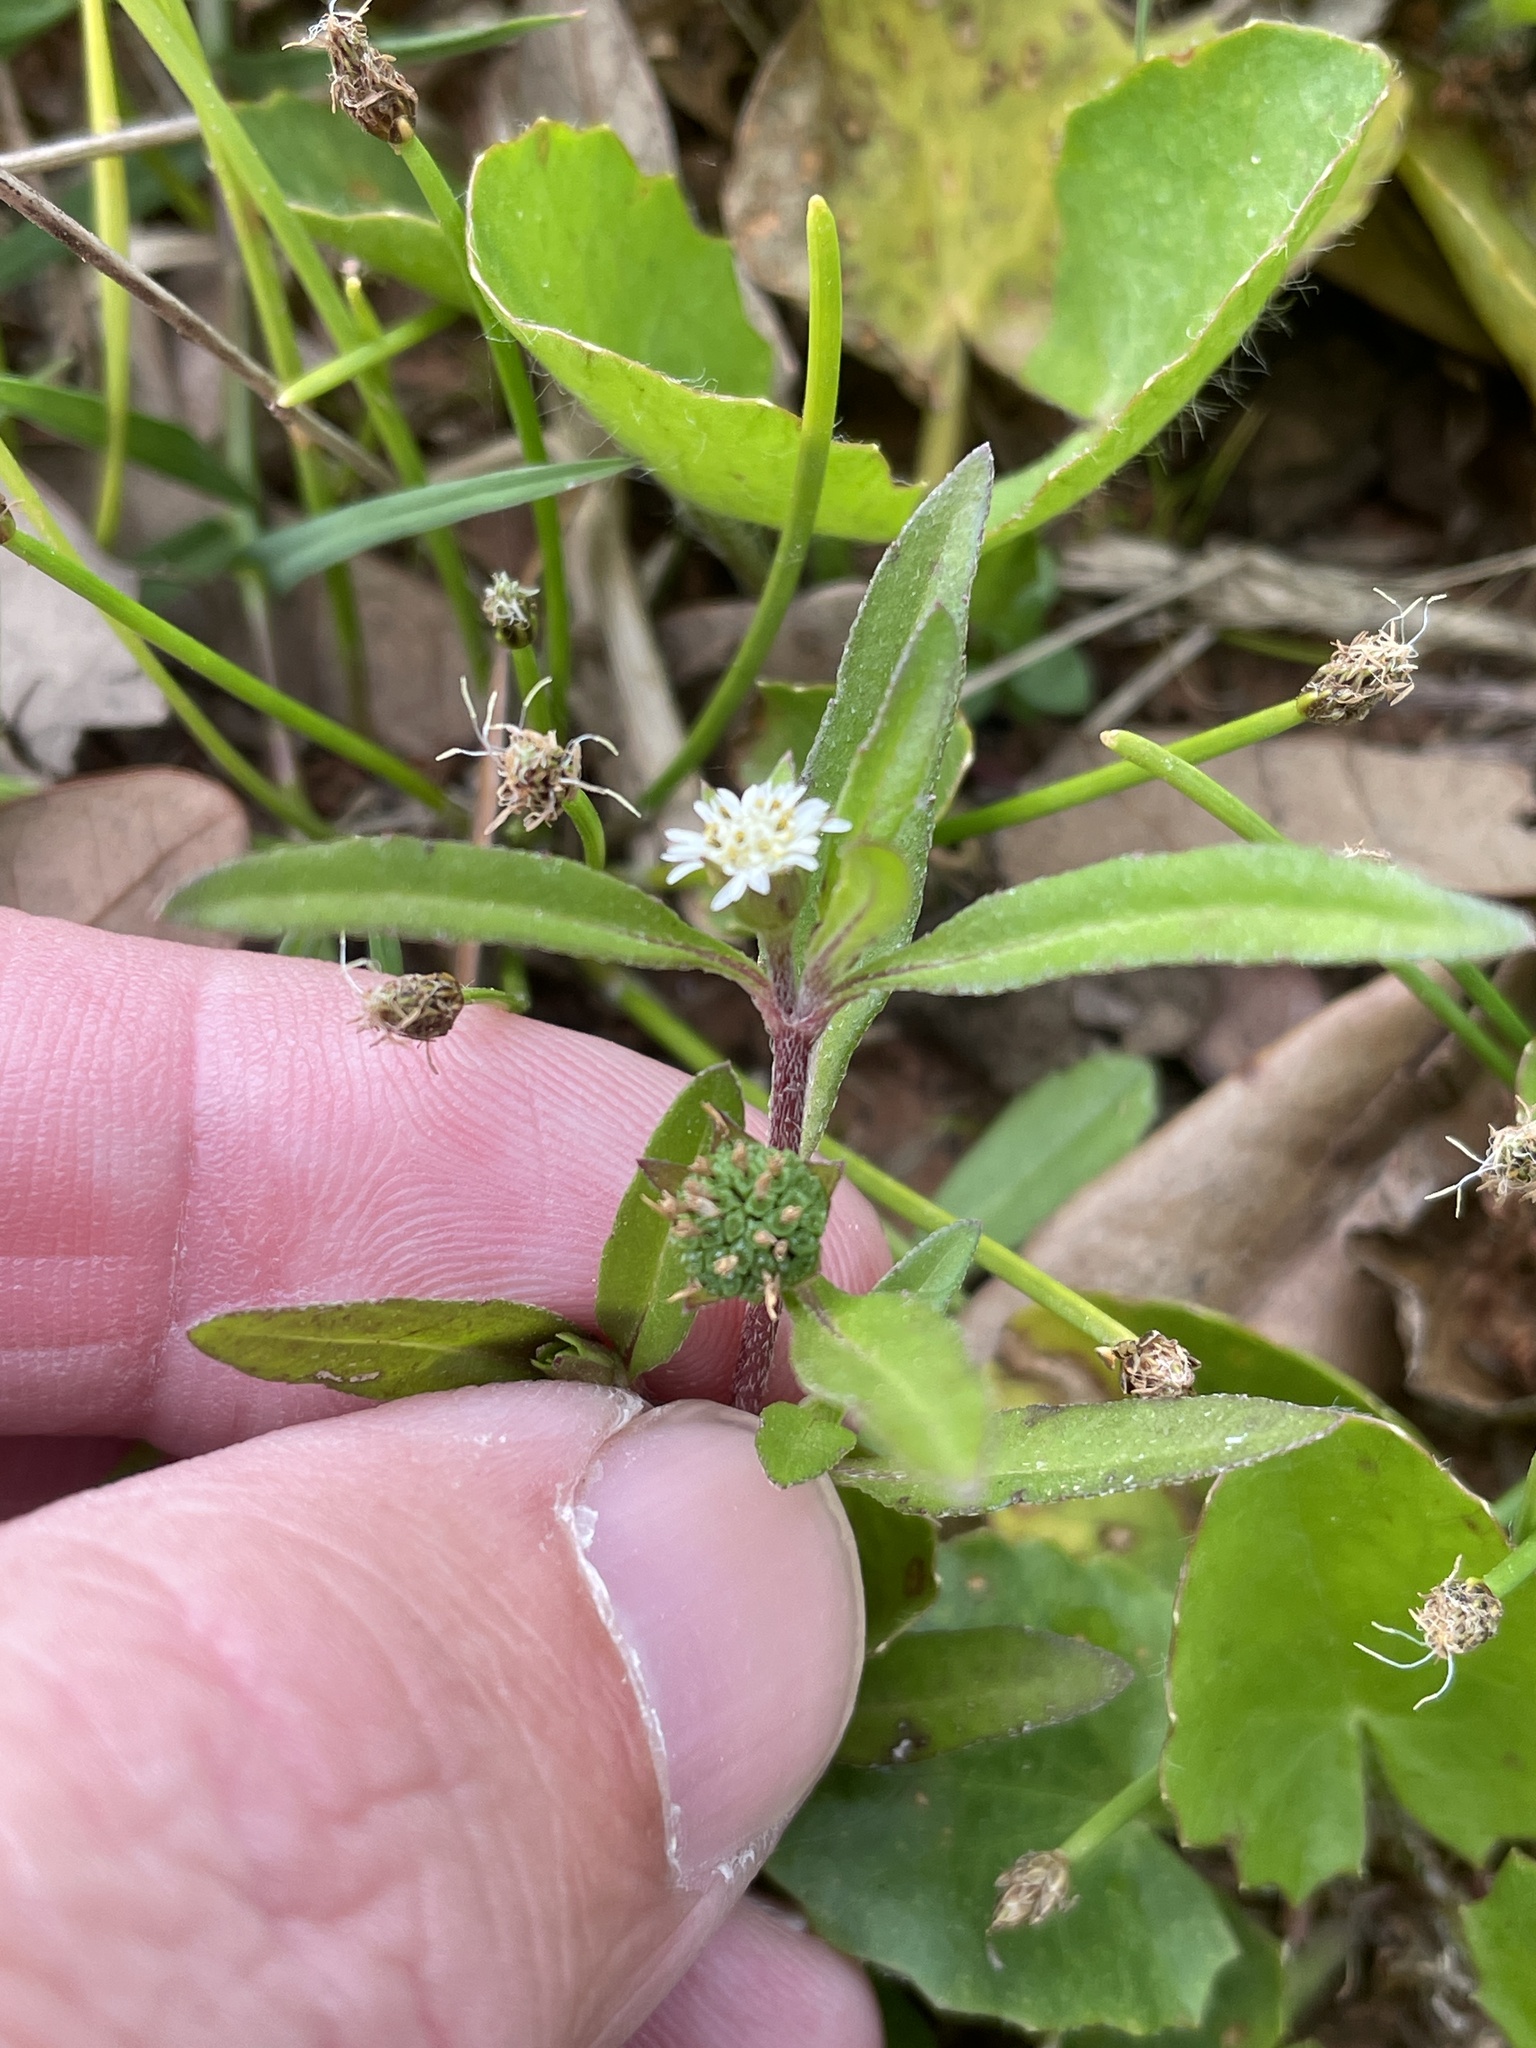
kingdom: Plantae
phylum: Tracheophyta
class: Magnoliopsida
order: Asterales
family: Asteraceae
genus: Eclipta
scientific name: Eclipta prostrata
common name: False daisy
